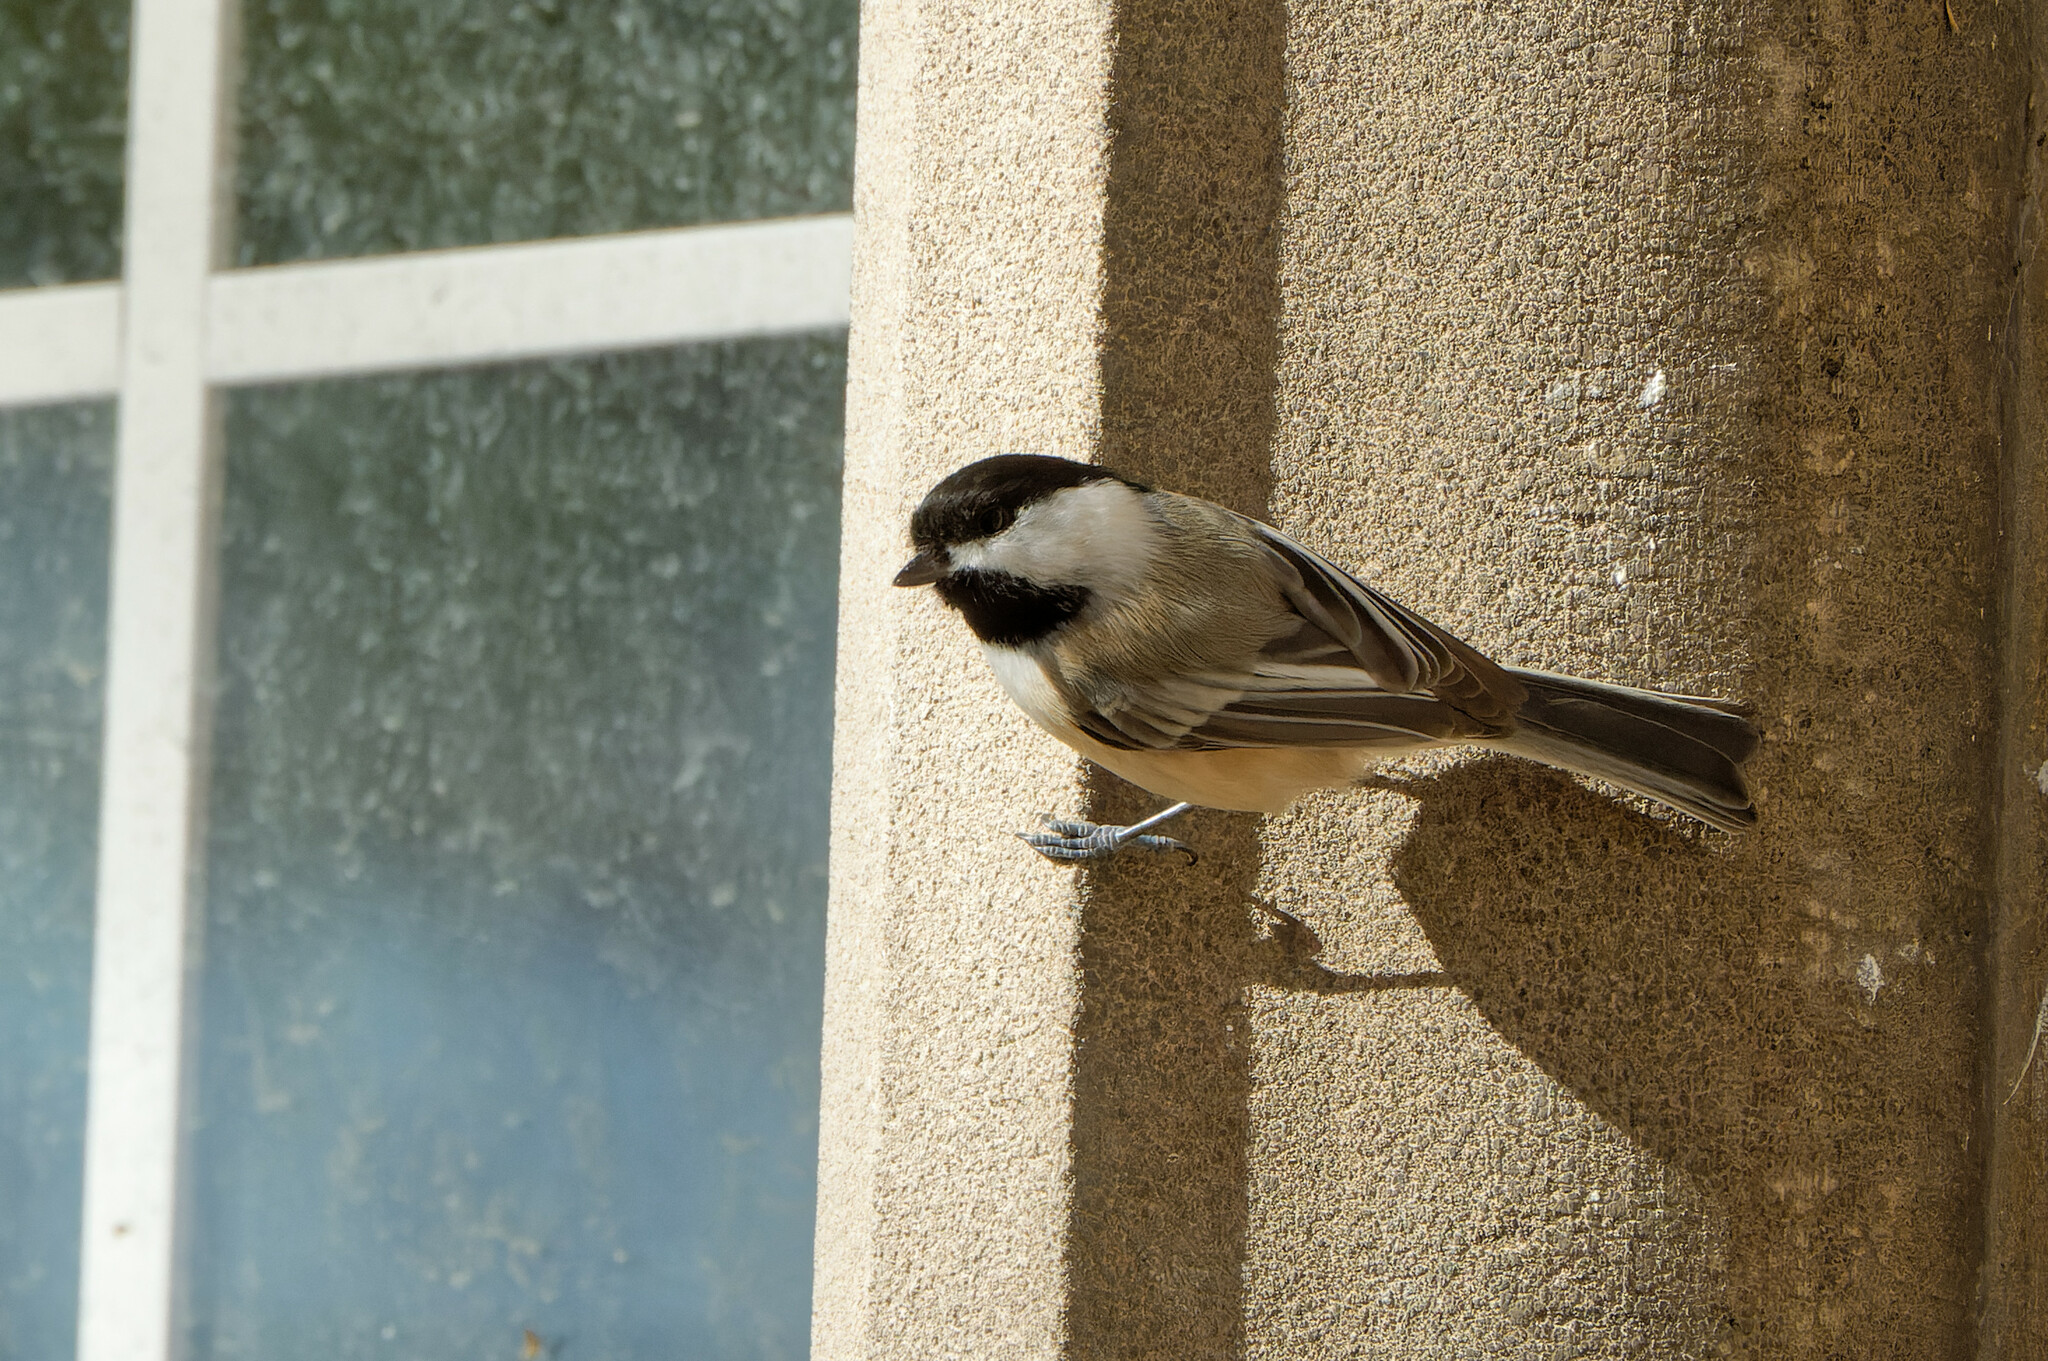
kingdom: Animalia
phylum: Chordata
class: Aves
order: Passeriformes
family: Paridae
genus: Poecile
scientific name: Poecile atricapillus
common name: Black-capped chickadee
